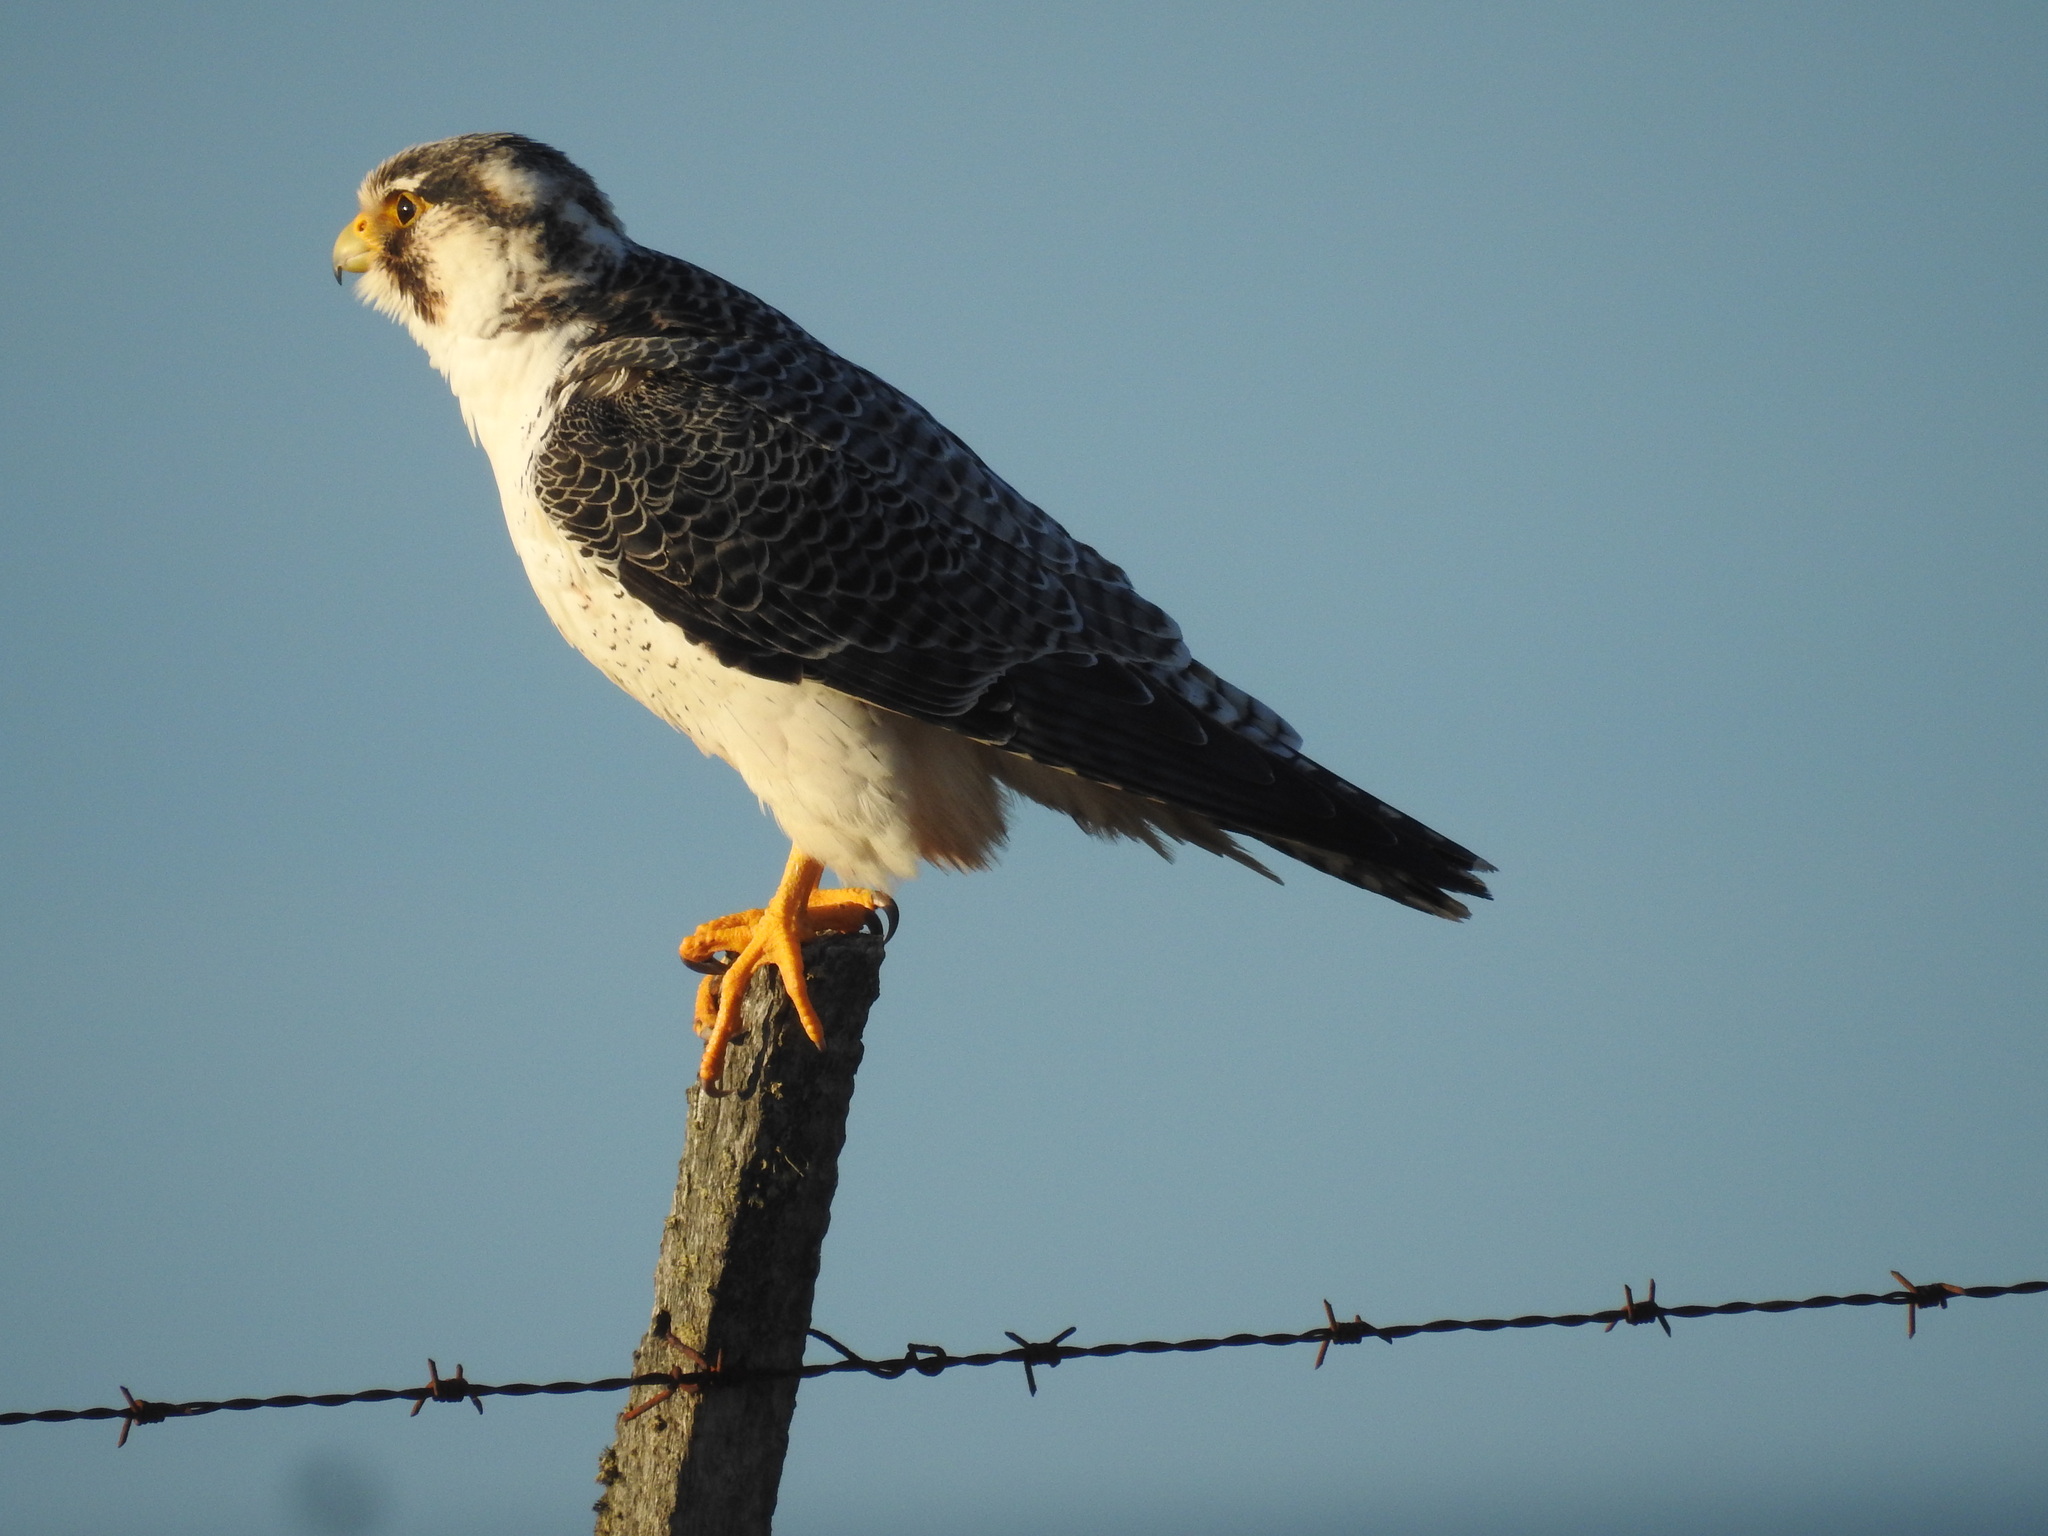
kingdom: Animalia
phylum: Chordata
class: Aves
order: Falconiformes
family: Falconidae
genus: Falco
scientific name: Falco peregrinus
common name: Peregrine falcon
